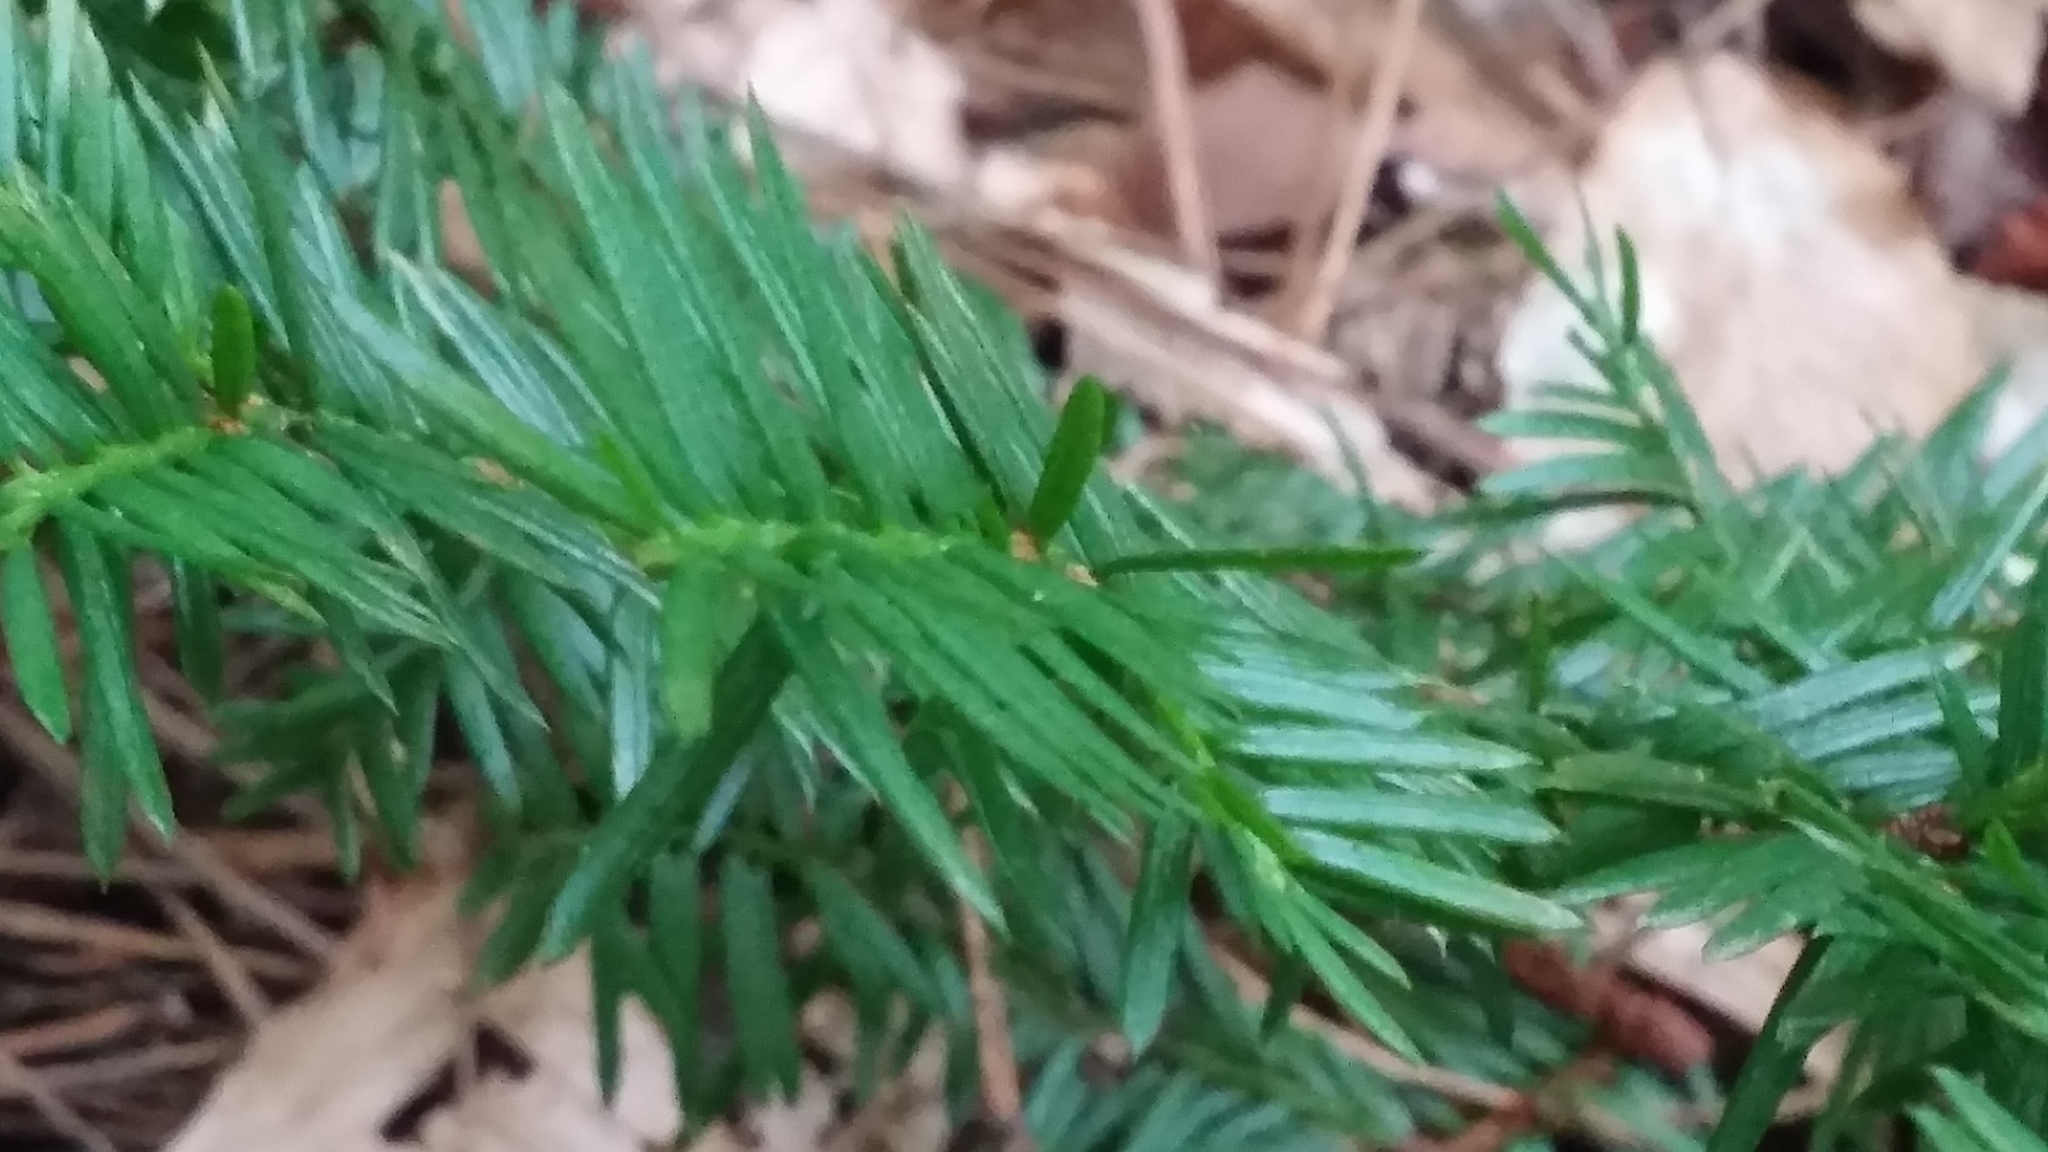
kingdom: Plantae
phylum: Tracheophyta
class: Pinopsida
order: Pinales
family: Taxaceae
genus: Taxus
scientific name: Taxus canadensis
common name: American yew
